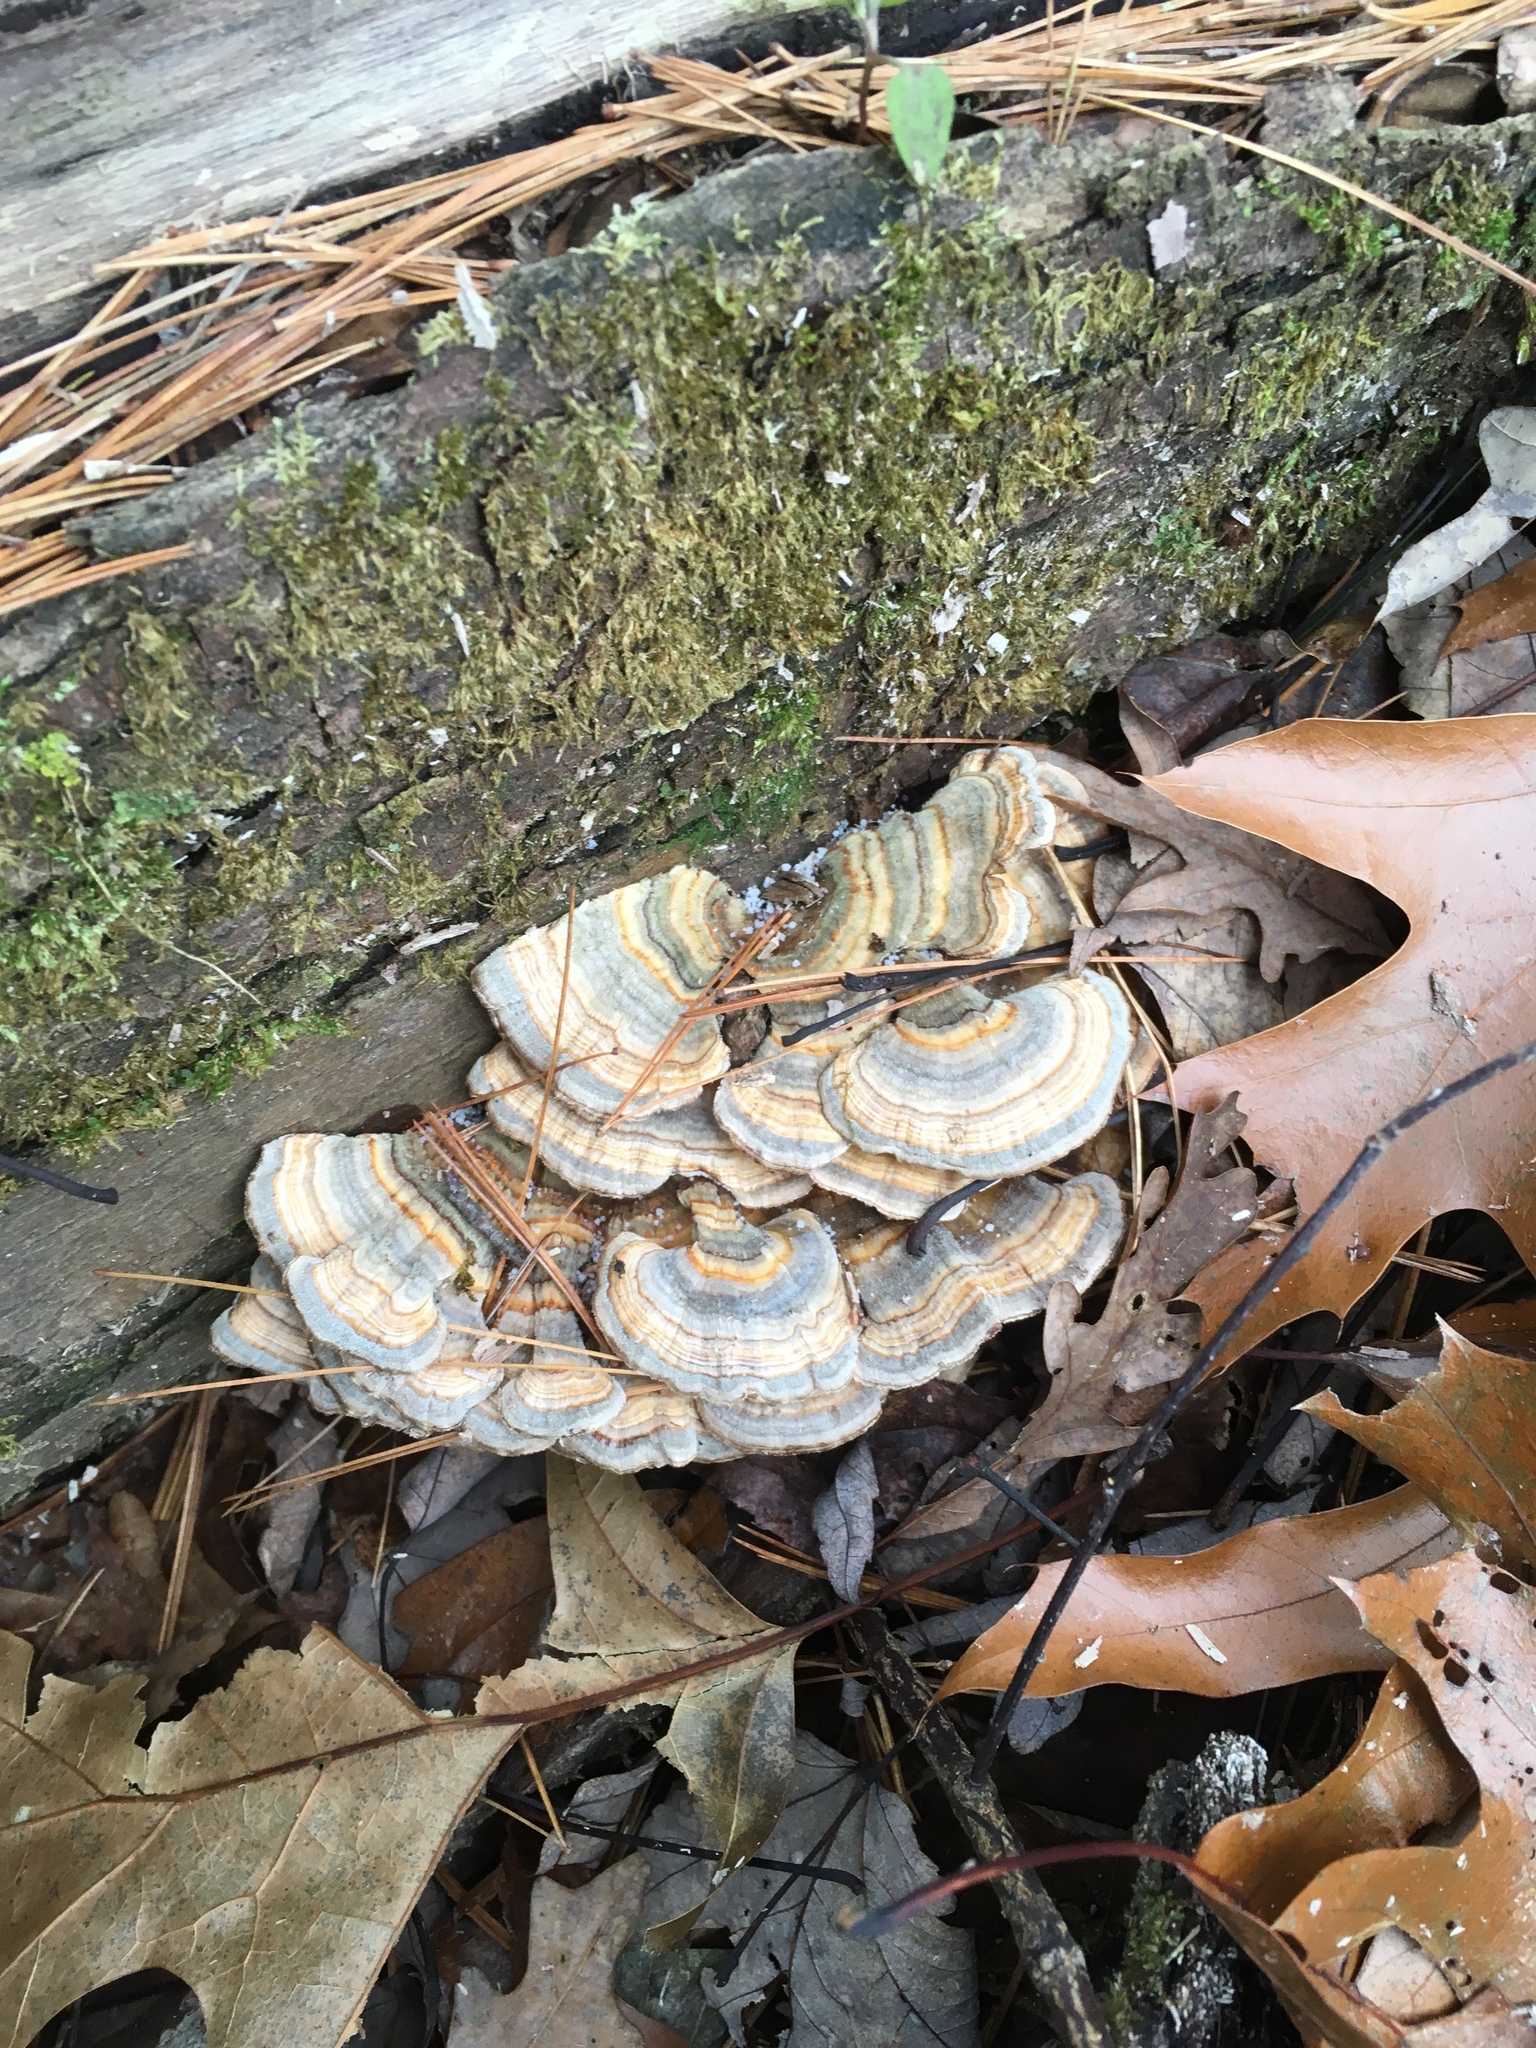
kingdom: Fungi
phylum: Basidiomycota
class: Agaricomycetes
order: Polyporales
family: Polyporaceae
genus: Trametes
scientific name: Trametes versicolor
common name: Turkeytail
